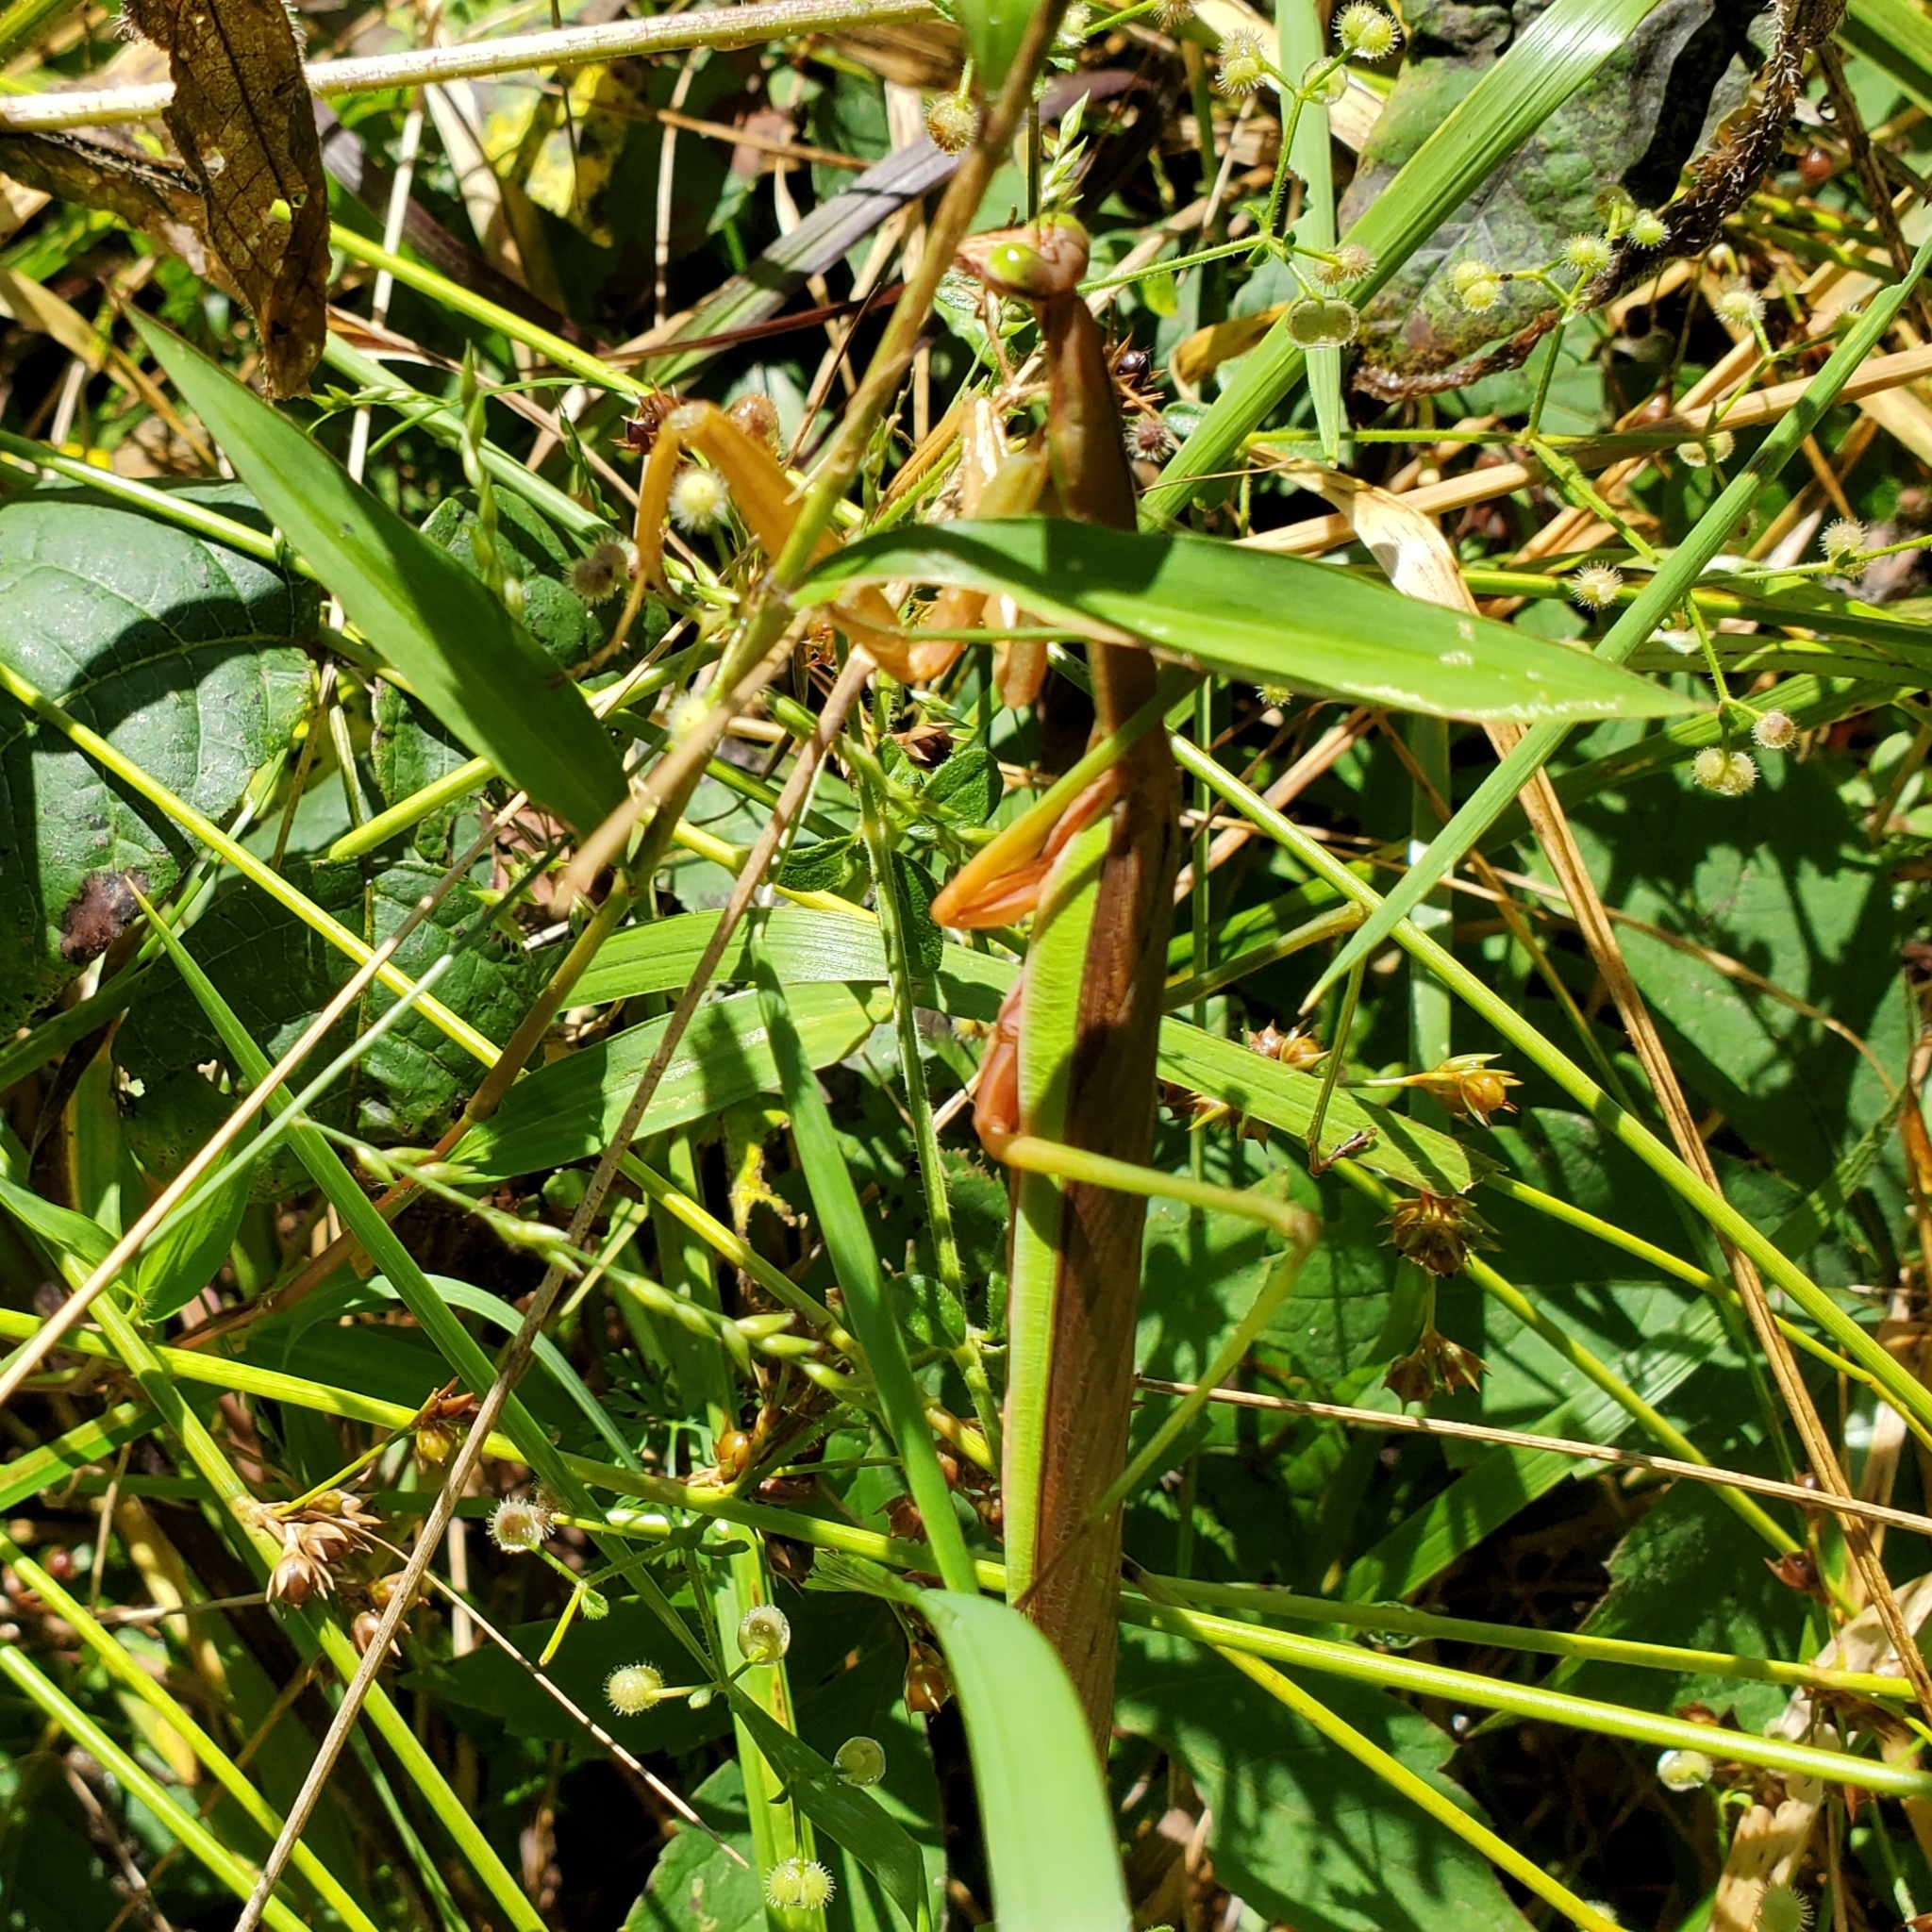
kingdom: Animalia
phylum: Arthropoda
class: Insecta
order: Mantodea
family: Mantidae
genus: Tenodera
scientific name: Tenodera sinensis
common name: Chinese mantis
